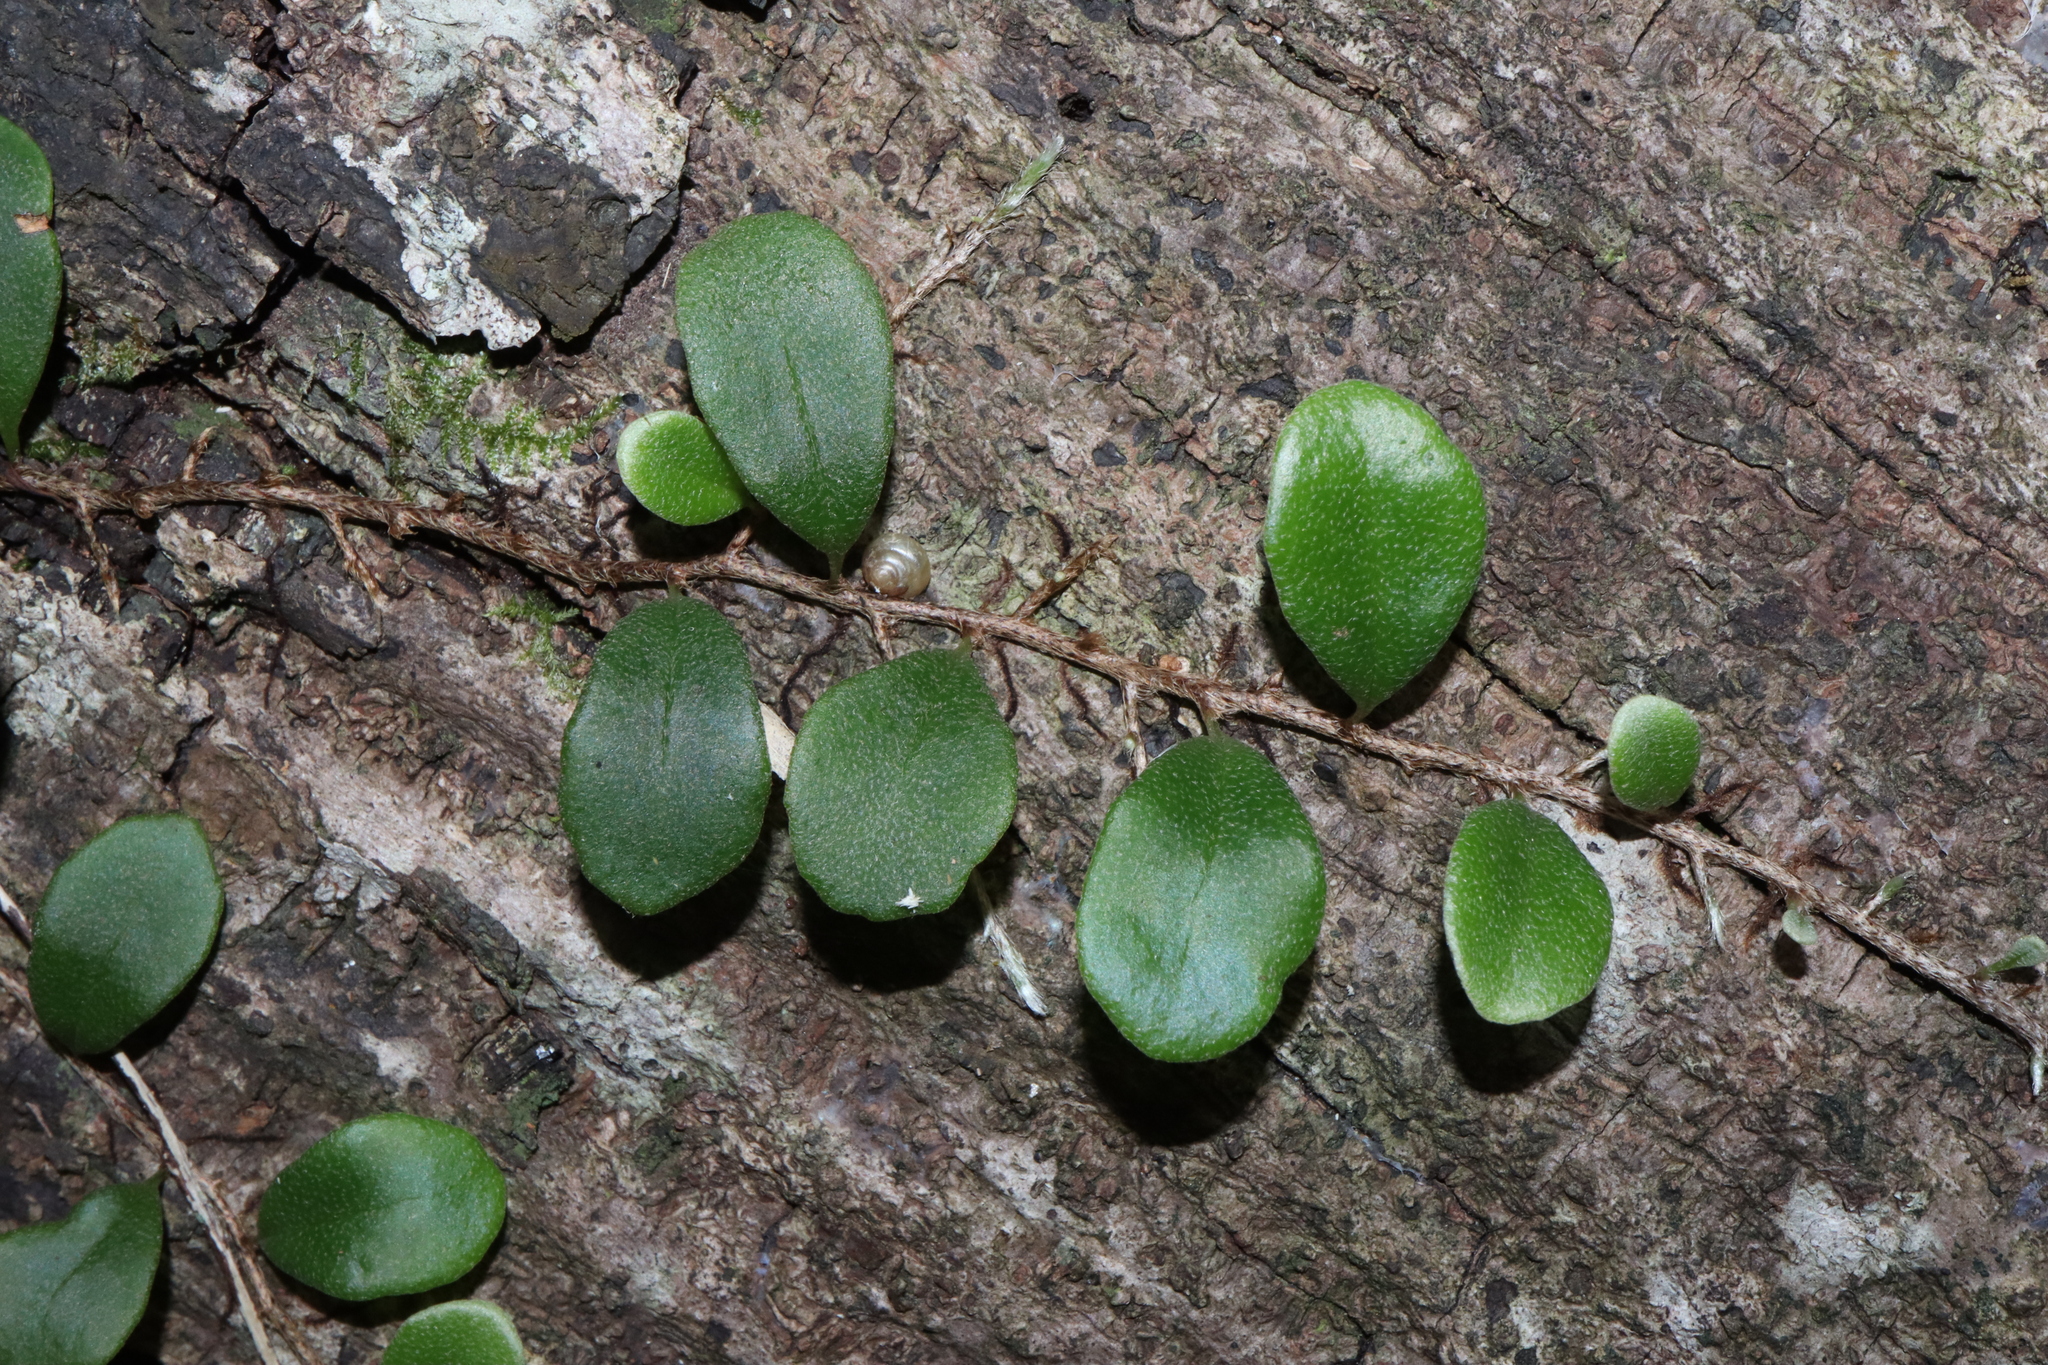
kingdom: Plantae
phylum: Tracheophyta
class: Polypodiopsida
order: Polypodiales
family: Polypodiaceae
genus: Pyrrosia
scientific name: Pyrrosia rupestris
